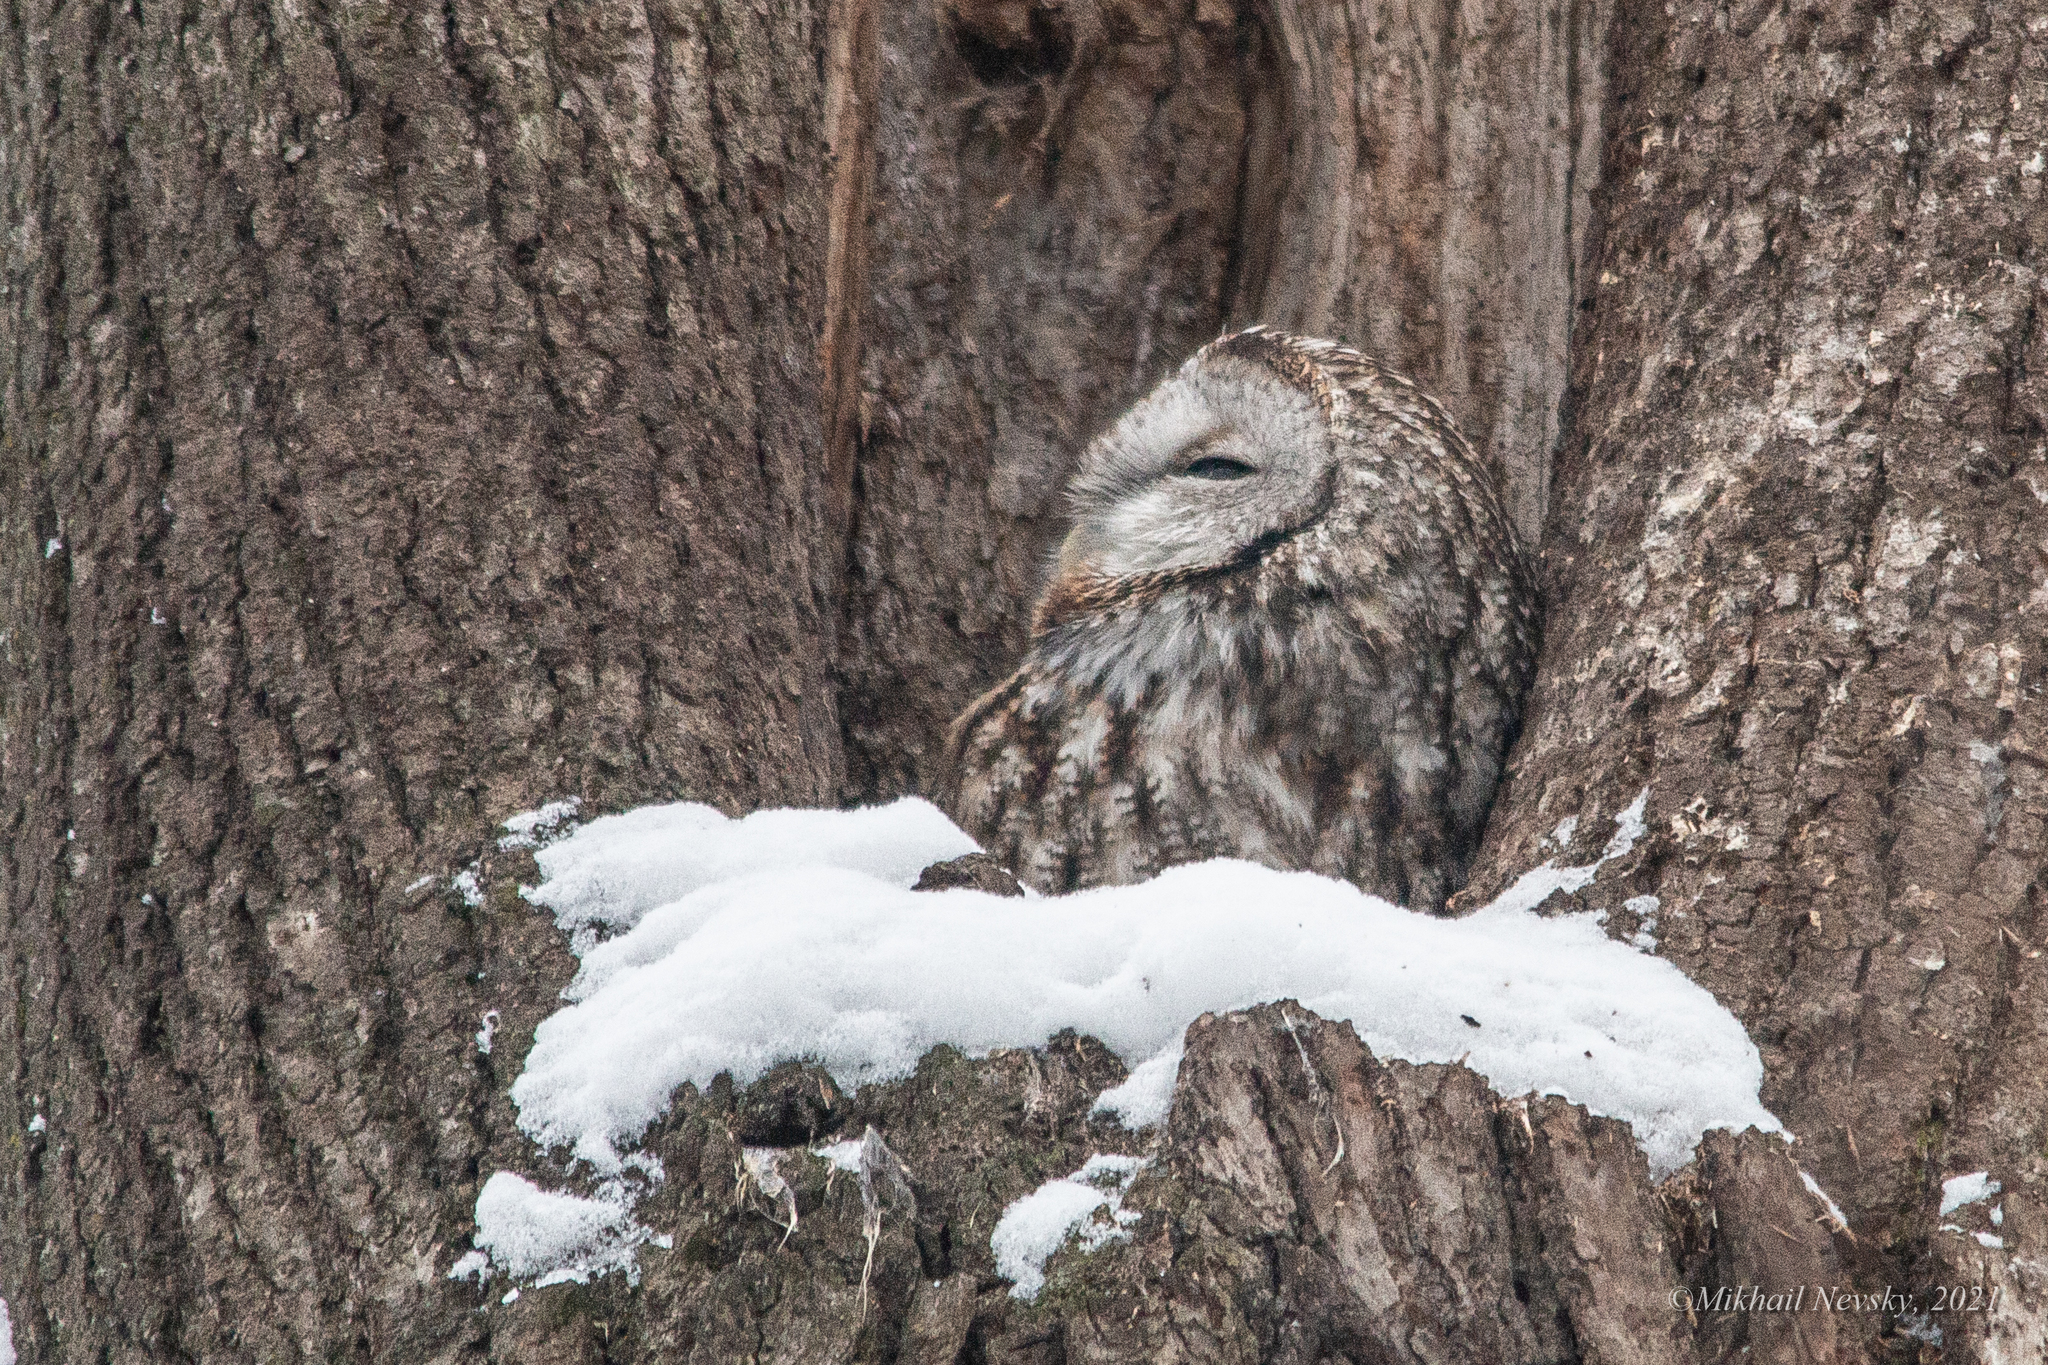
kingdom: Animalia
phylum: Chordata
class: Aves
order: Strigiformes
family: Strigidae
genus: Strix
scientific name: Strix aluco
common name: Tawny owl
